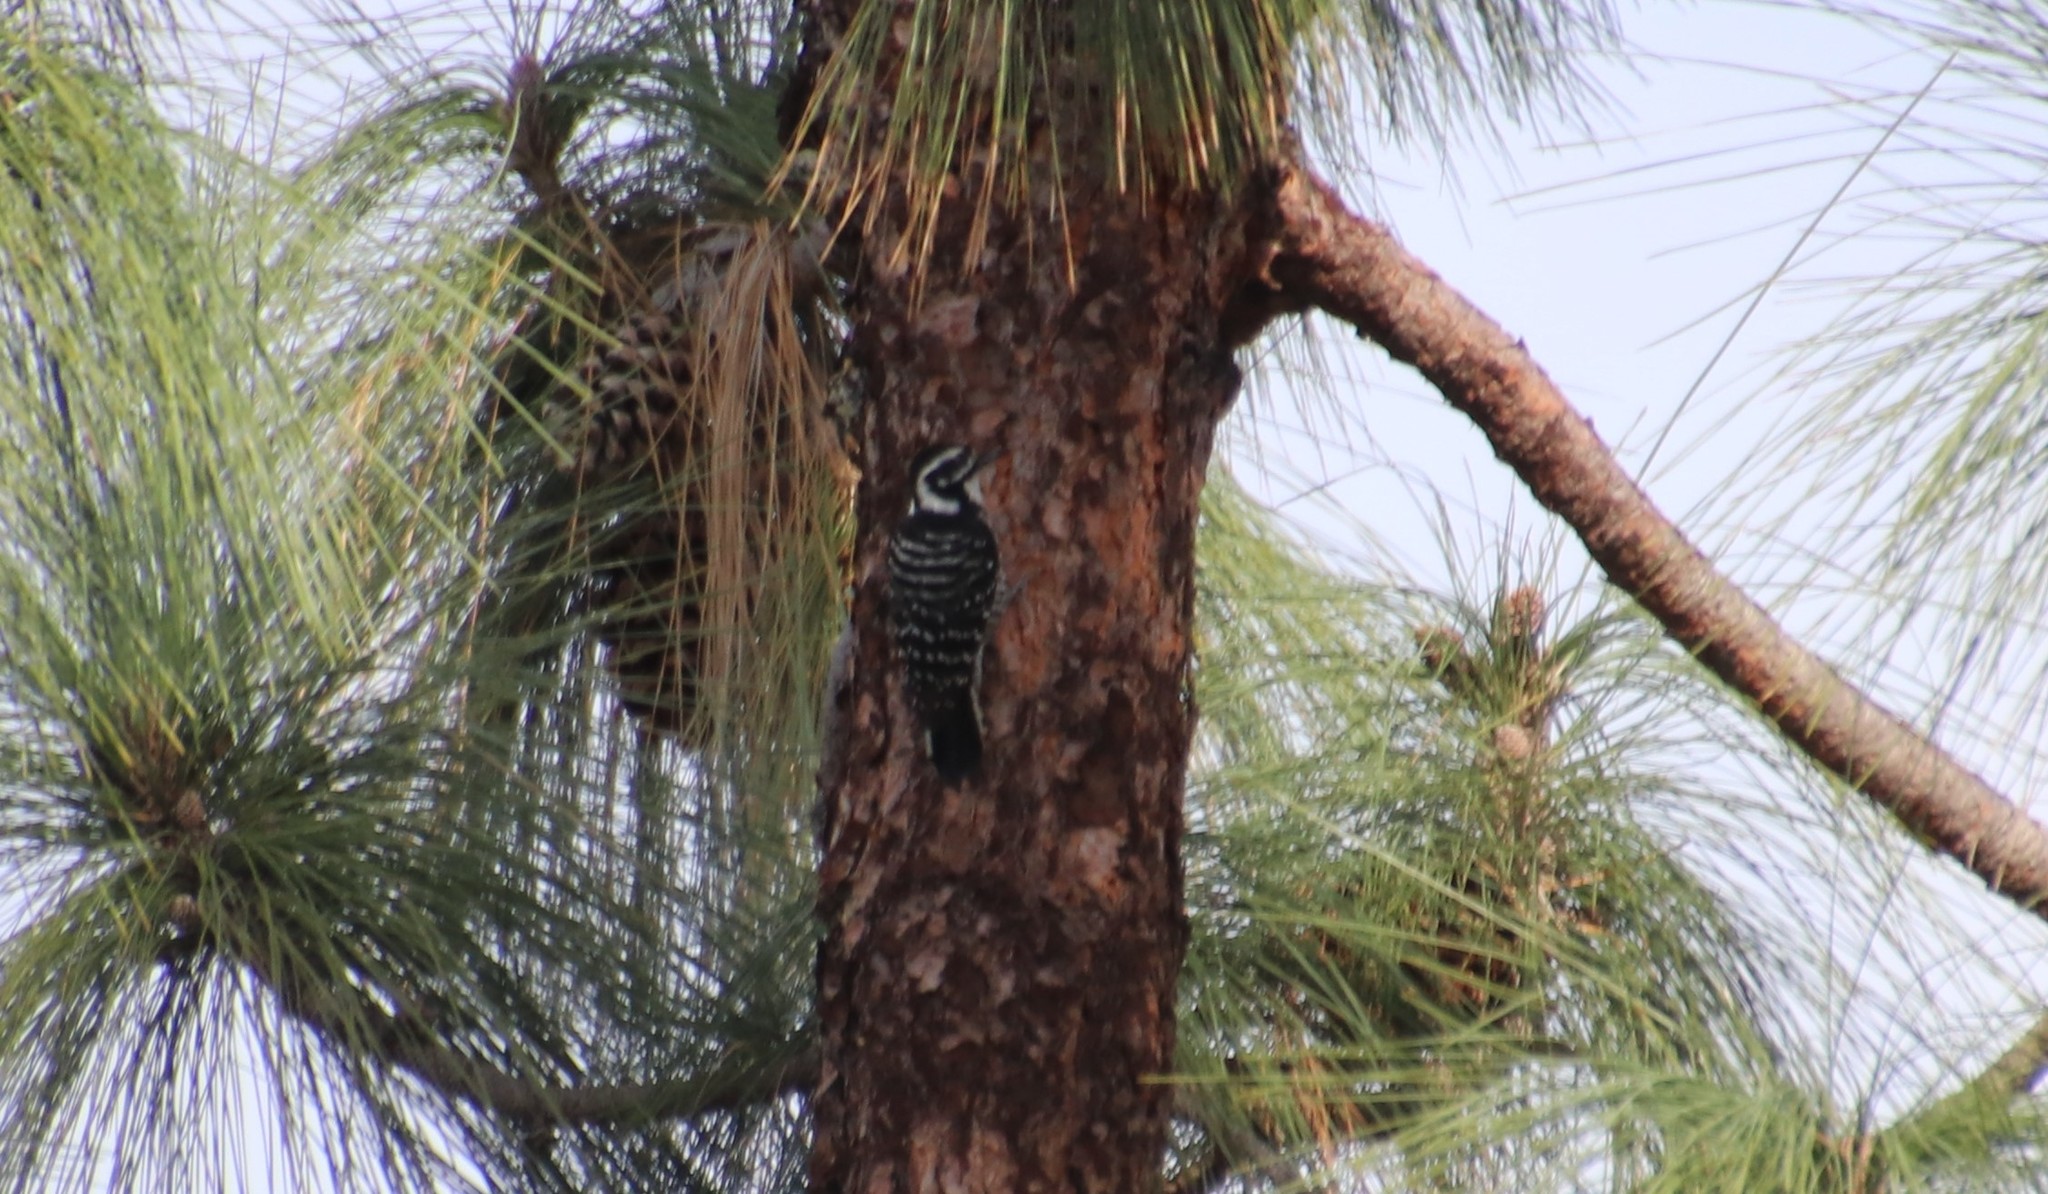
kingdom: Animalia
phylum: Chordata
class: Aves
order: Piciformes
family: Picidae
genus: Dryobates
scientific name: Dryobates nuttallii
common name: Nuttall's woodpecker
